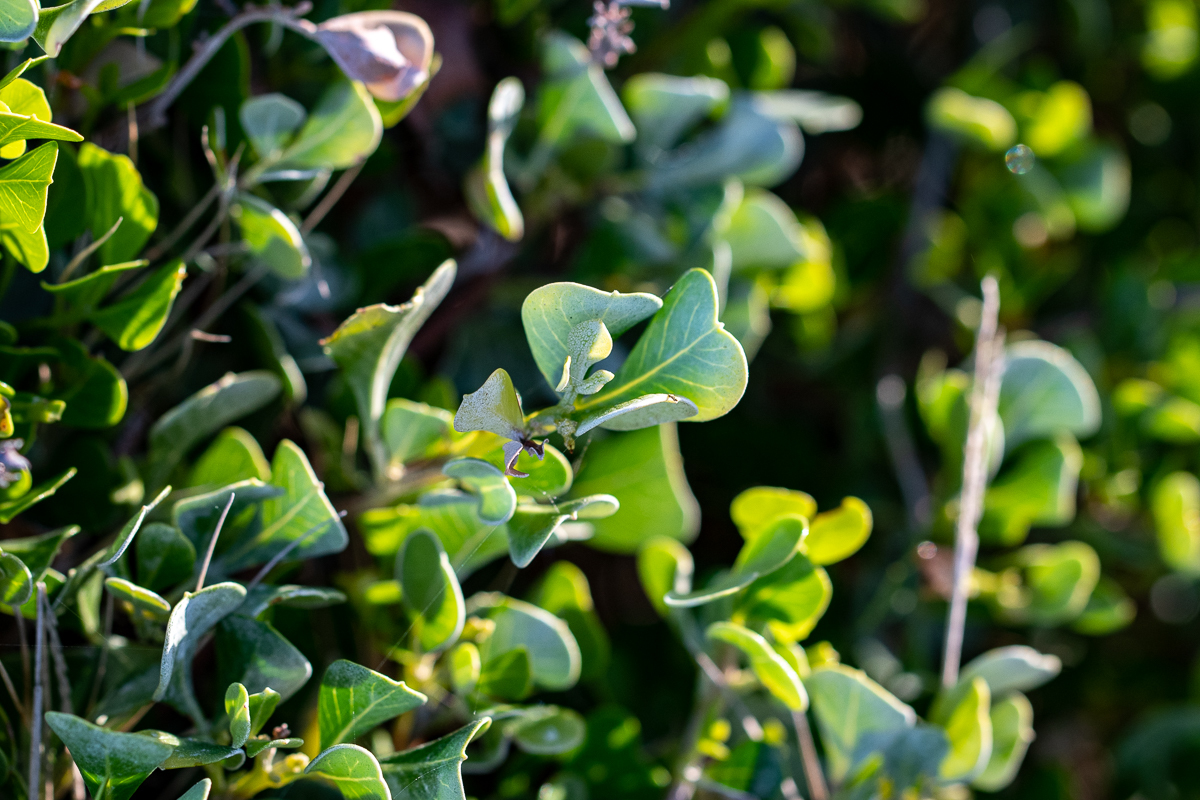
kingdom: Plantae
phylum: Tracheophyta
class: Magnoliopsida
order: Sapindales
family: Anacardiaceae
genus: Searsia
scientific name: Searsia glauca
